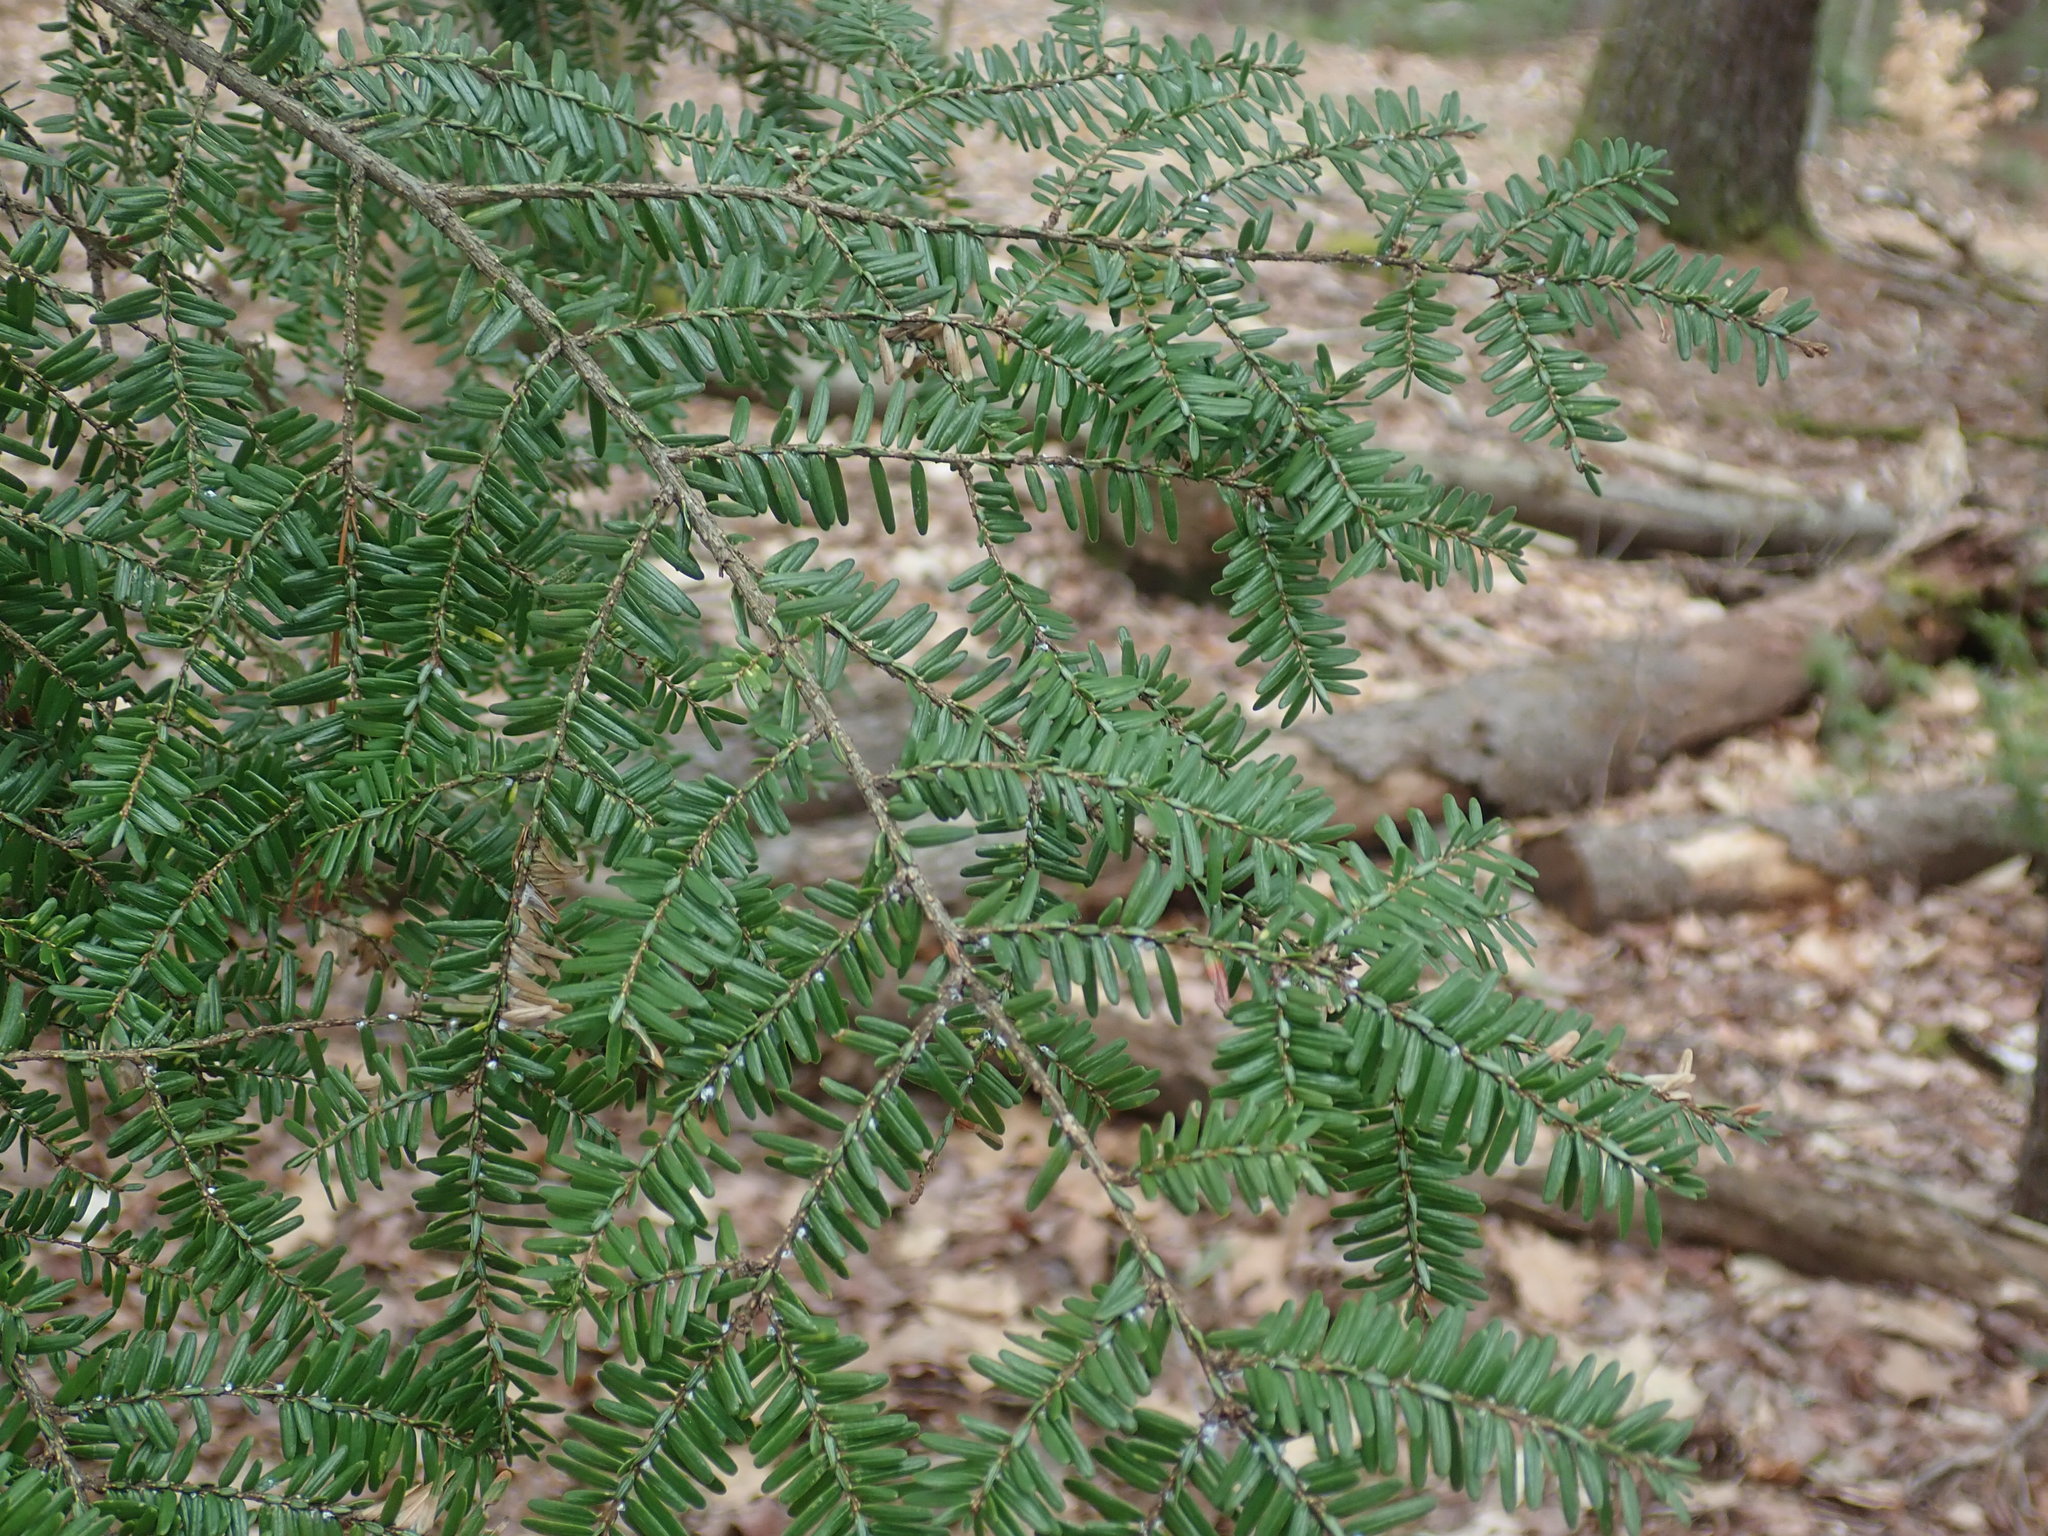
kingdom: Plantae
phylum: Tracheophyta
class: Pinopsida
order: Pinales
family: Pinaceae
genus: Tsuga
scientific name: Tsuga canadensis
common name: Eastern hemlock
